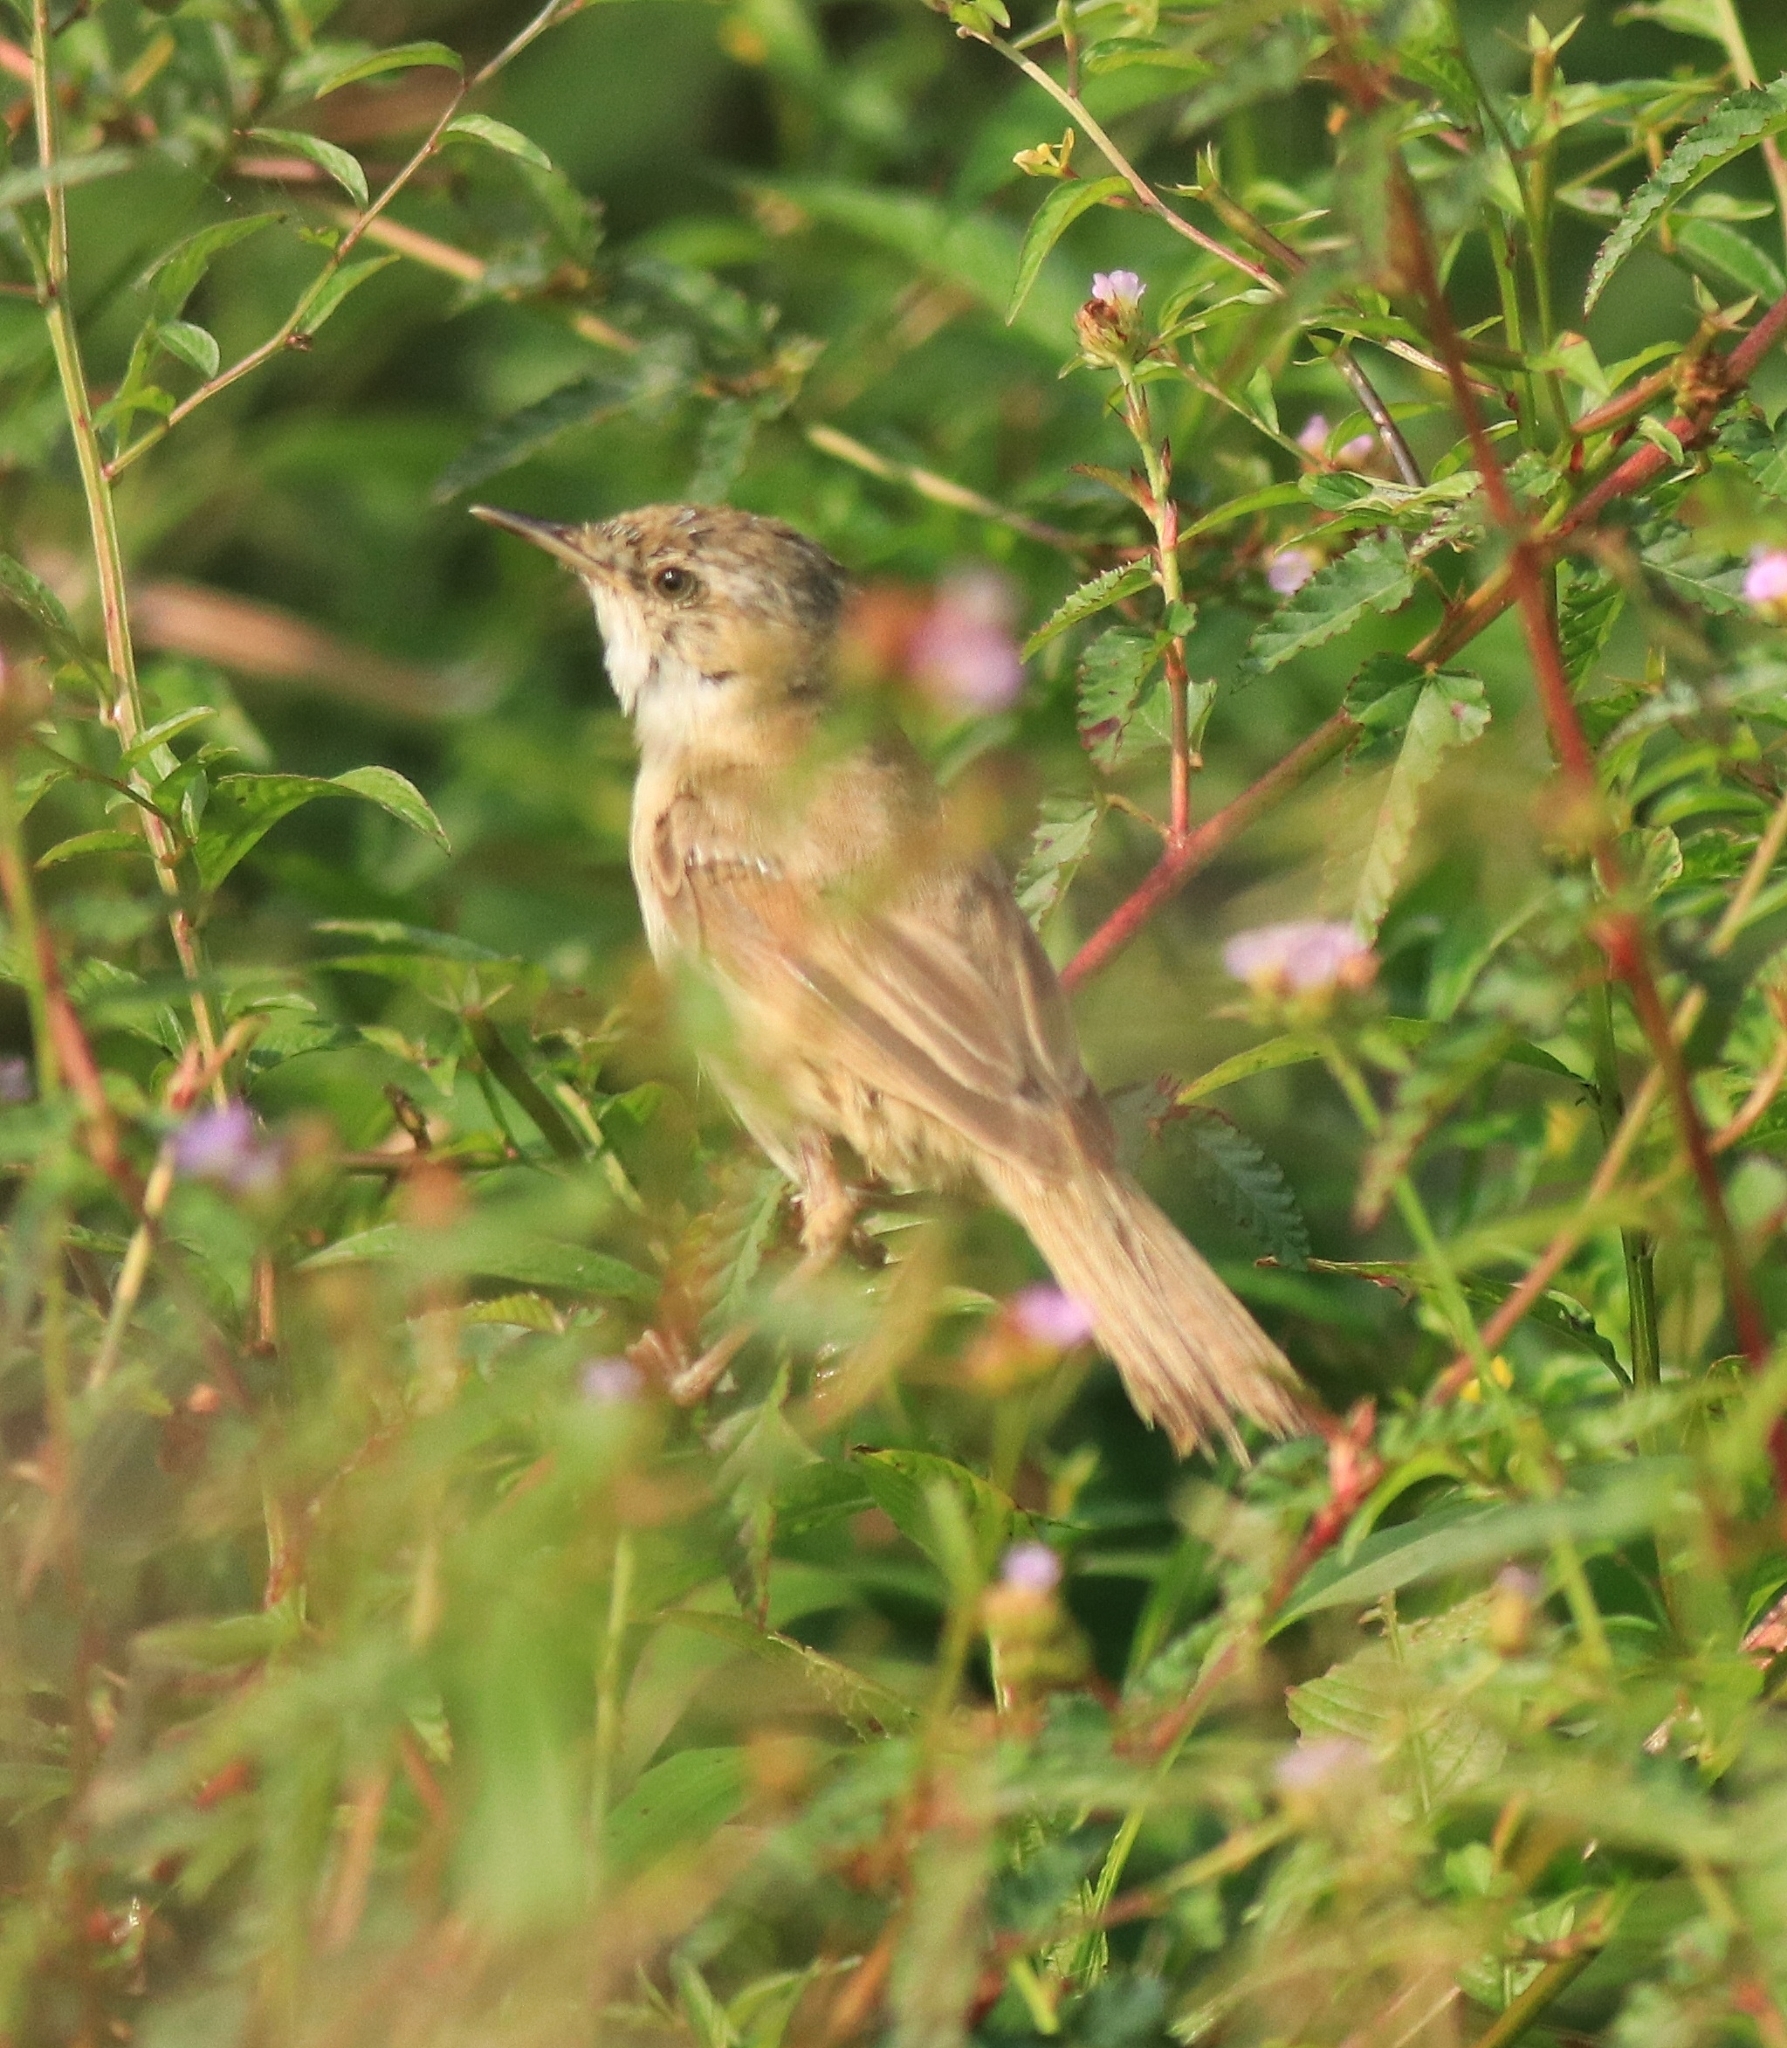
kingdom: Animalia
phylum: Chordata
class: Aves
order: Passeriformes
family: Acrocephalidae
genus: Acrocephalus
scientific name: Acrocephalus agricola
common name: Paddyfield warbler
